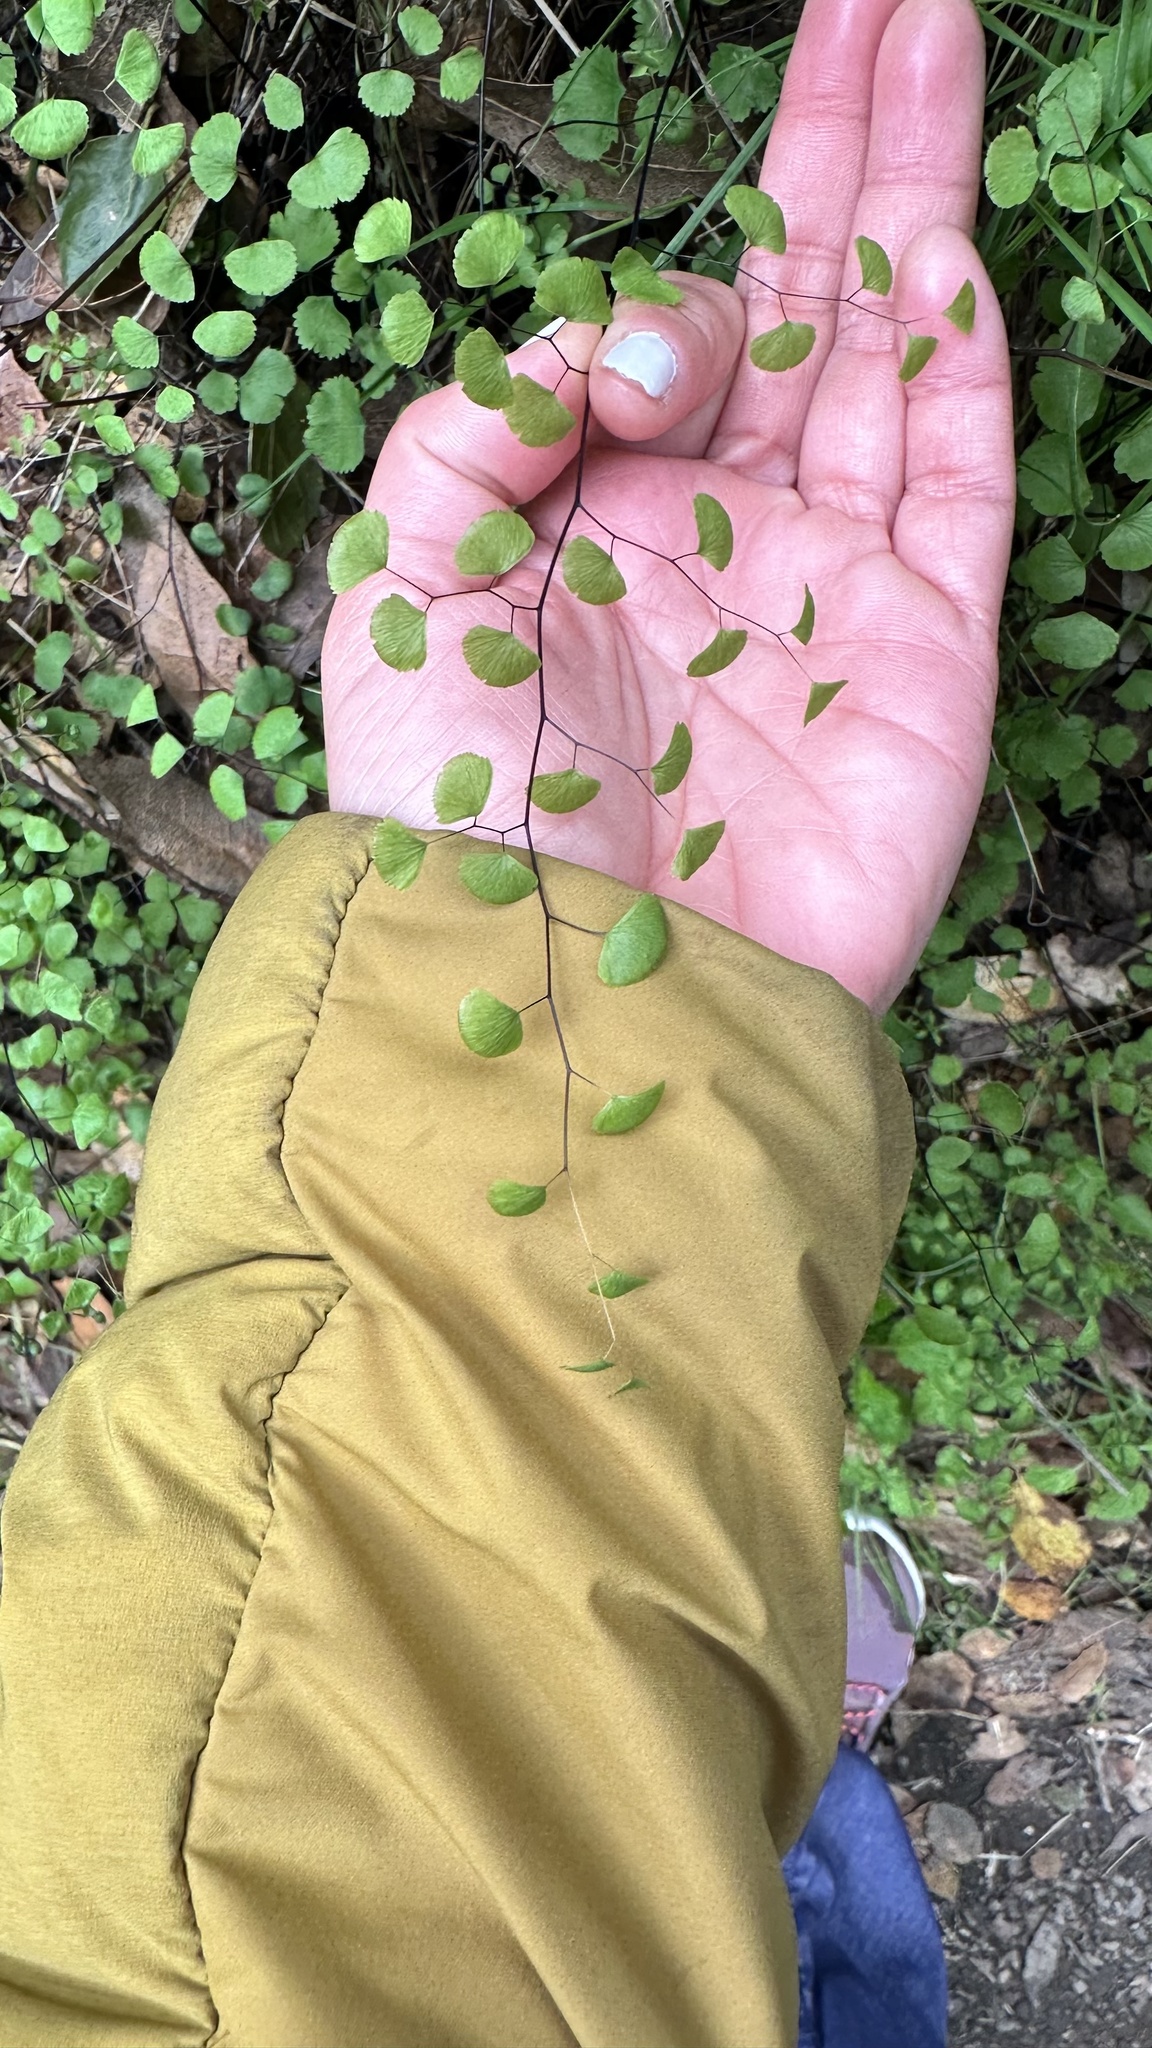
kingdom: Plantae
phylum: Tracheophyta
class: Polypodiopsida
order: Polypodiales
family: Pteridaceae
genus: Adiantum
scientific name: Adiantum jordanii
